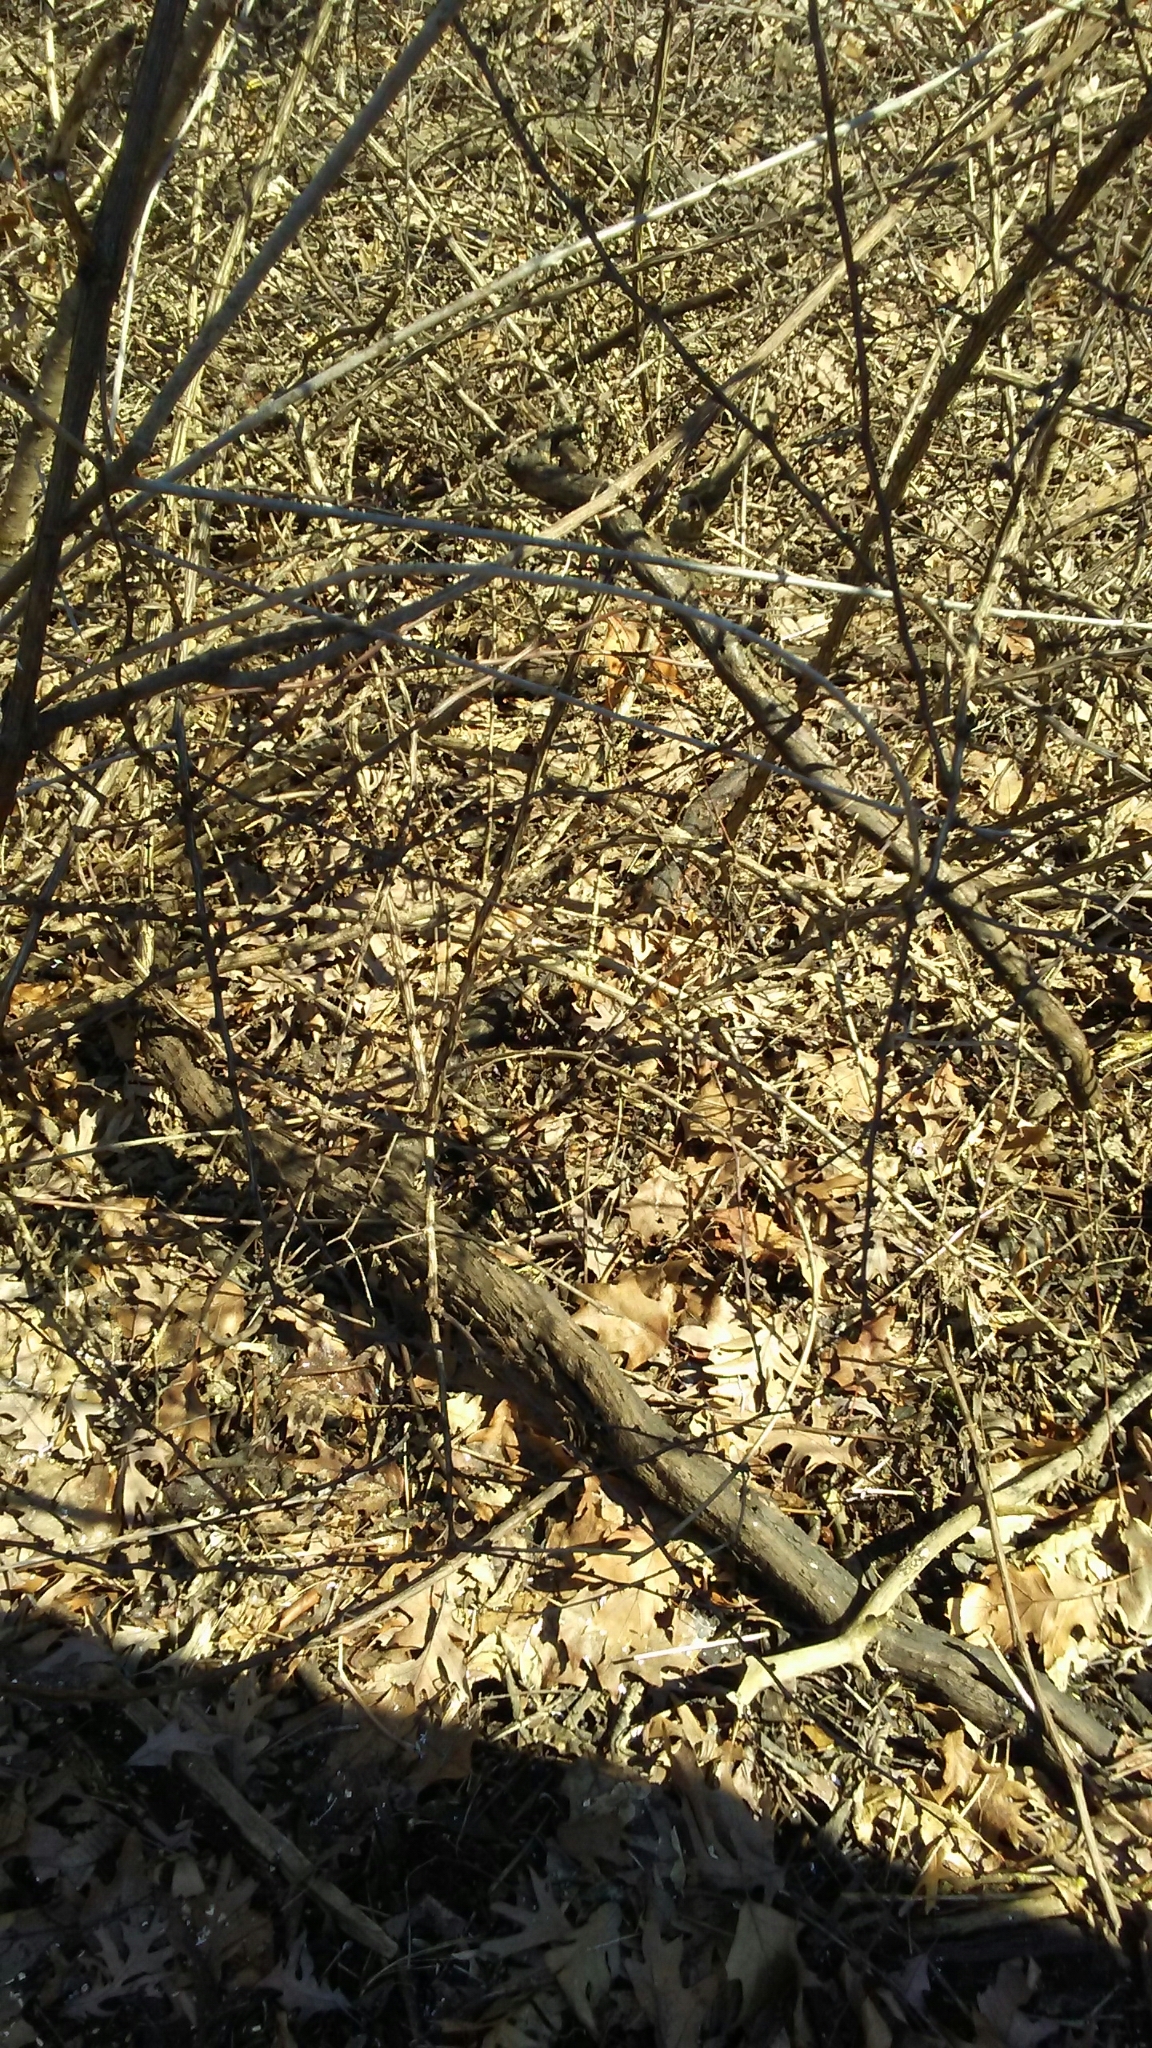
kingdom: Plantae
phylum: Tracheophyta
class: Magnoliopsida
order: Ranunculales
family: Berberidaceae
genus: Berberis
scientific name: Berberis thunbergii
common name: Japanese barberry
